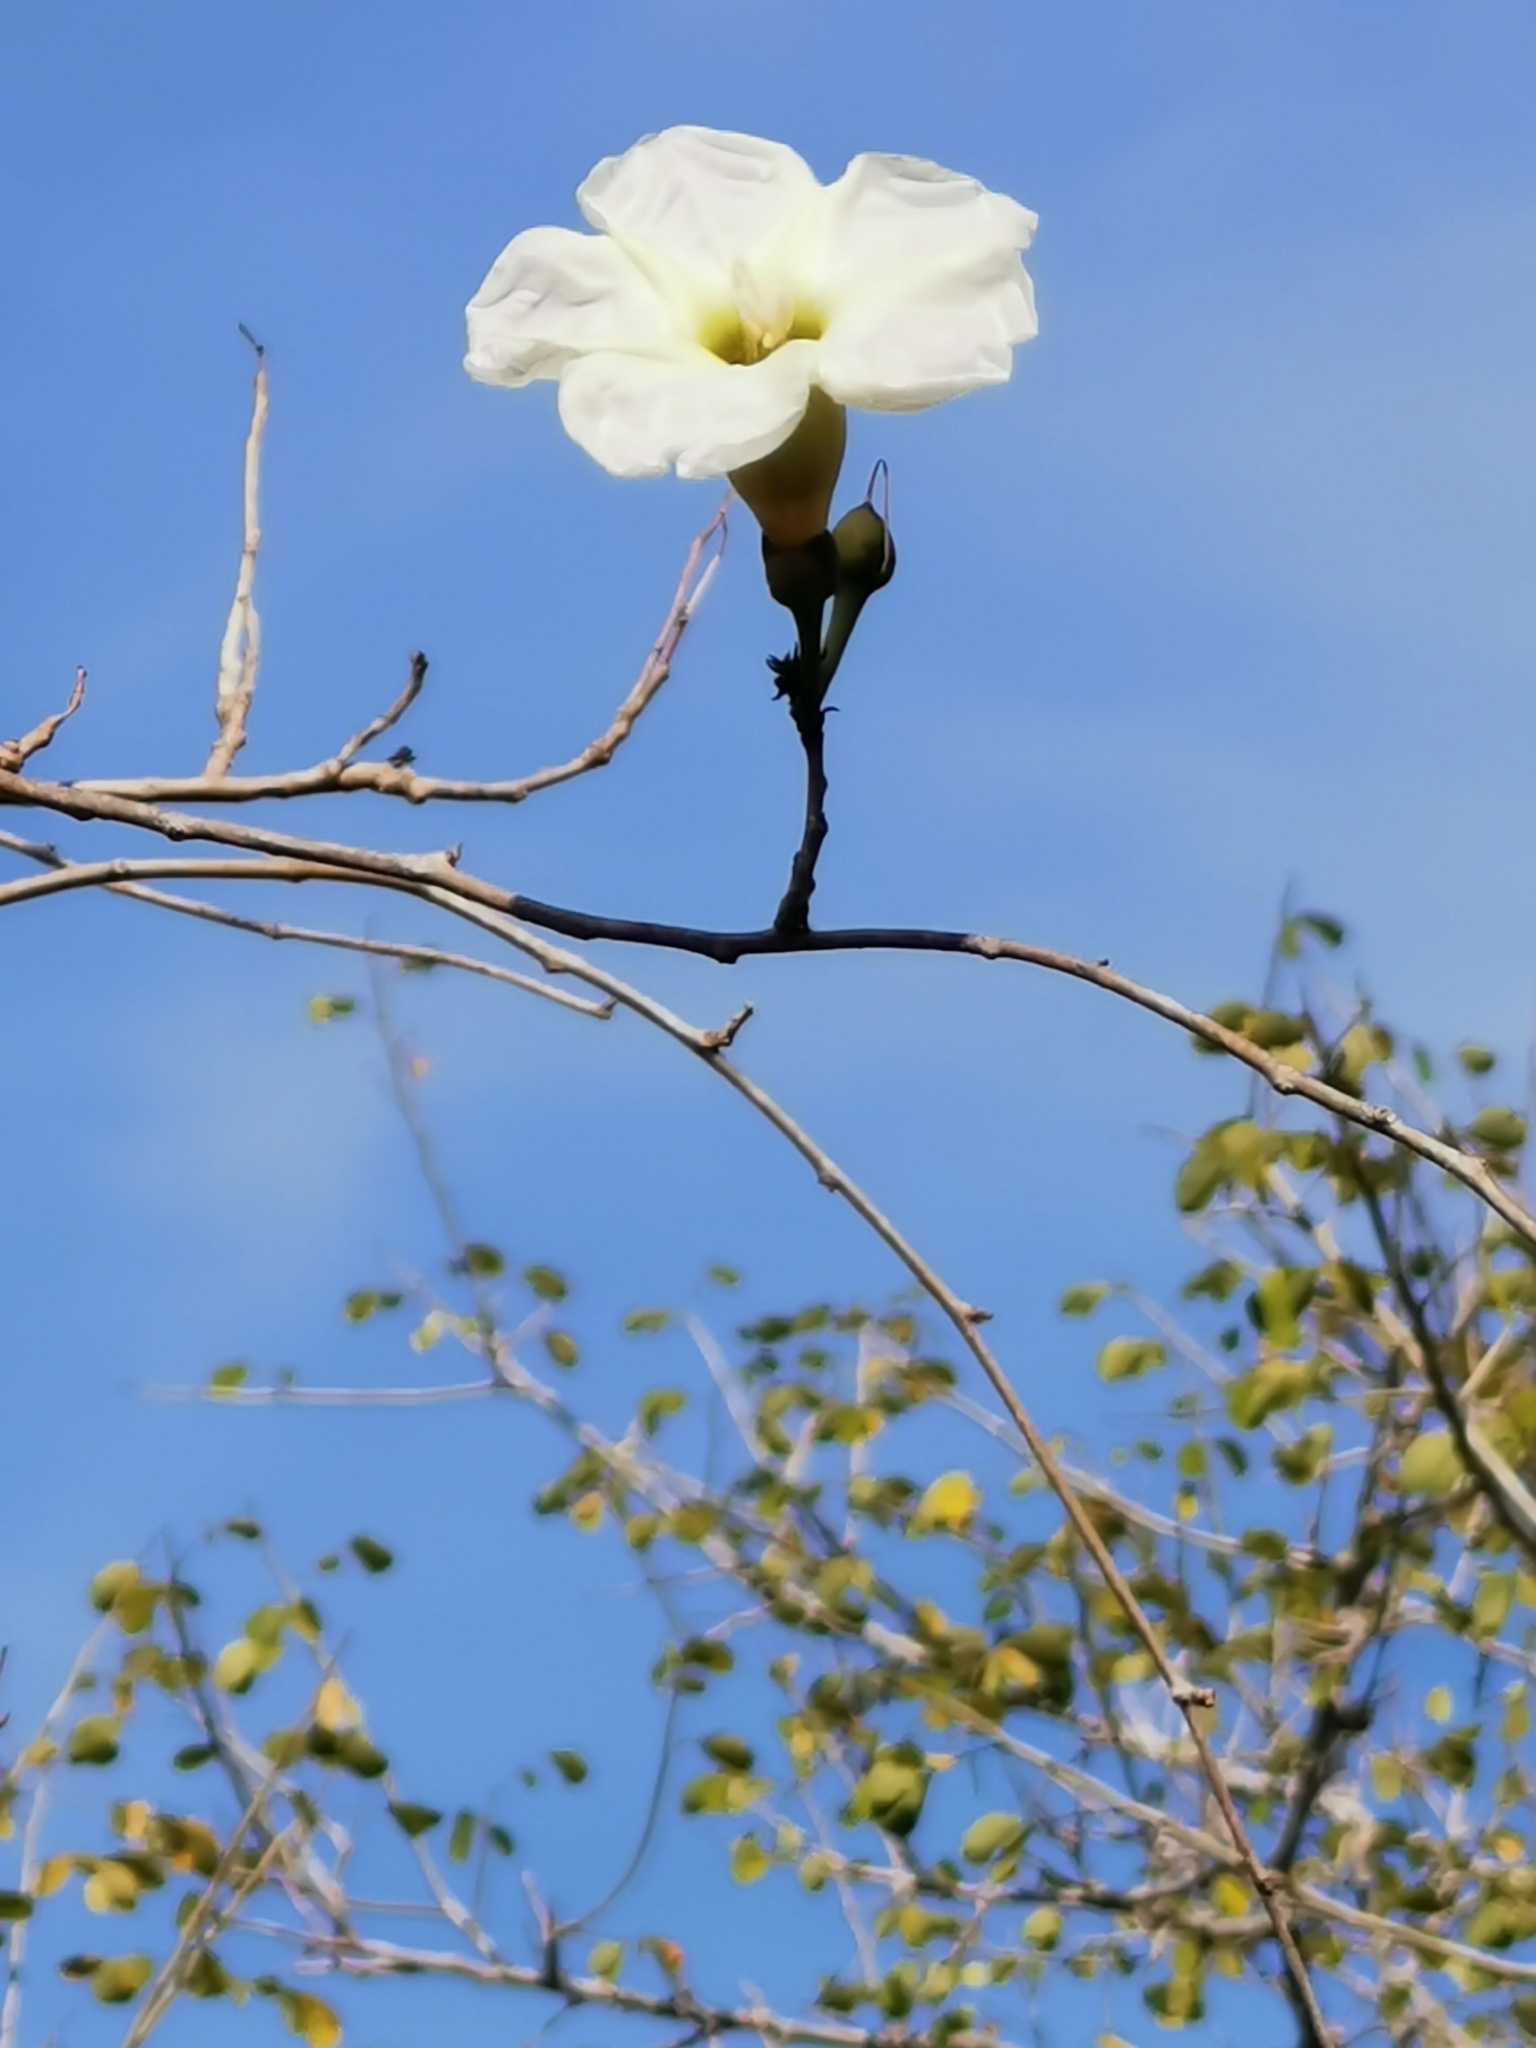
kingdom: Plantae
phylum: Tracheophyta
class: Magnoliopsida
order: Solanales
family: Convolvulaceae
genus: Ipomoea
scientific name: Ipomoea arborescens
